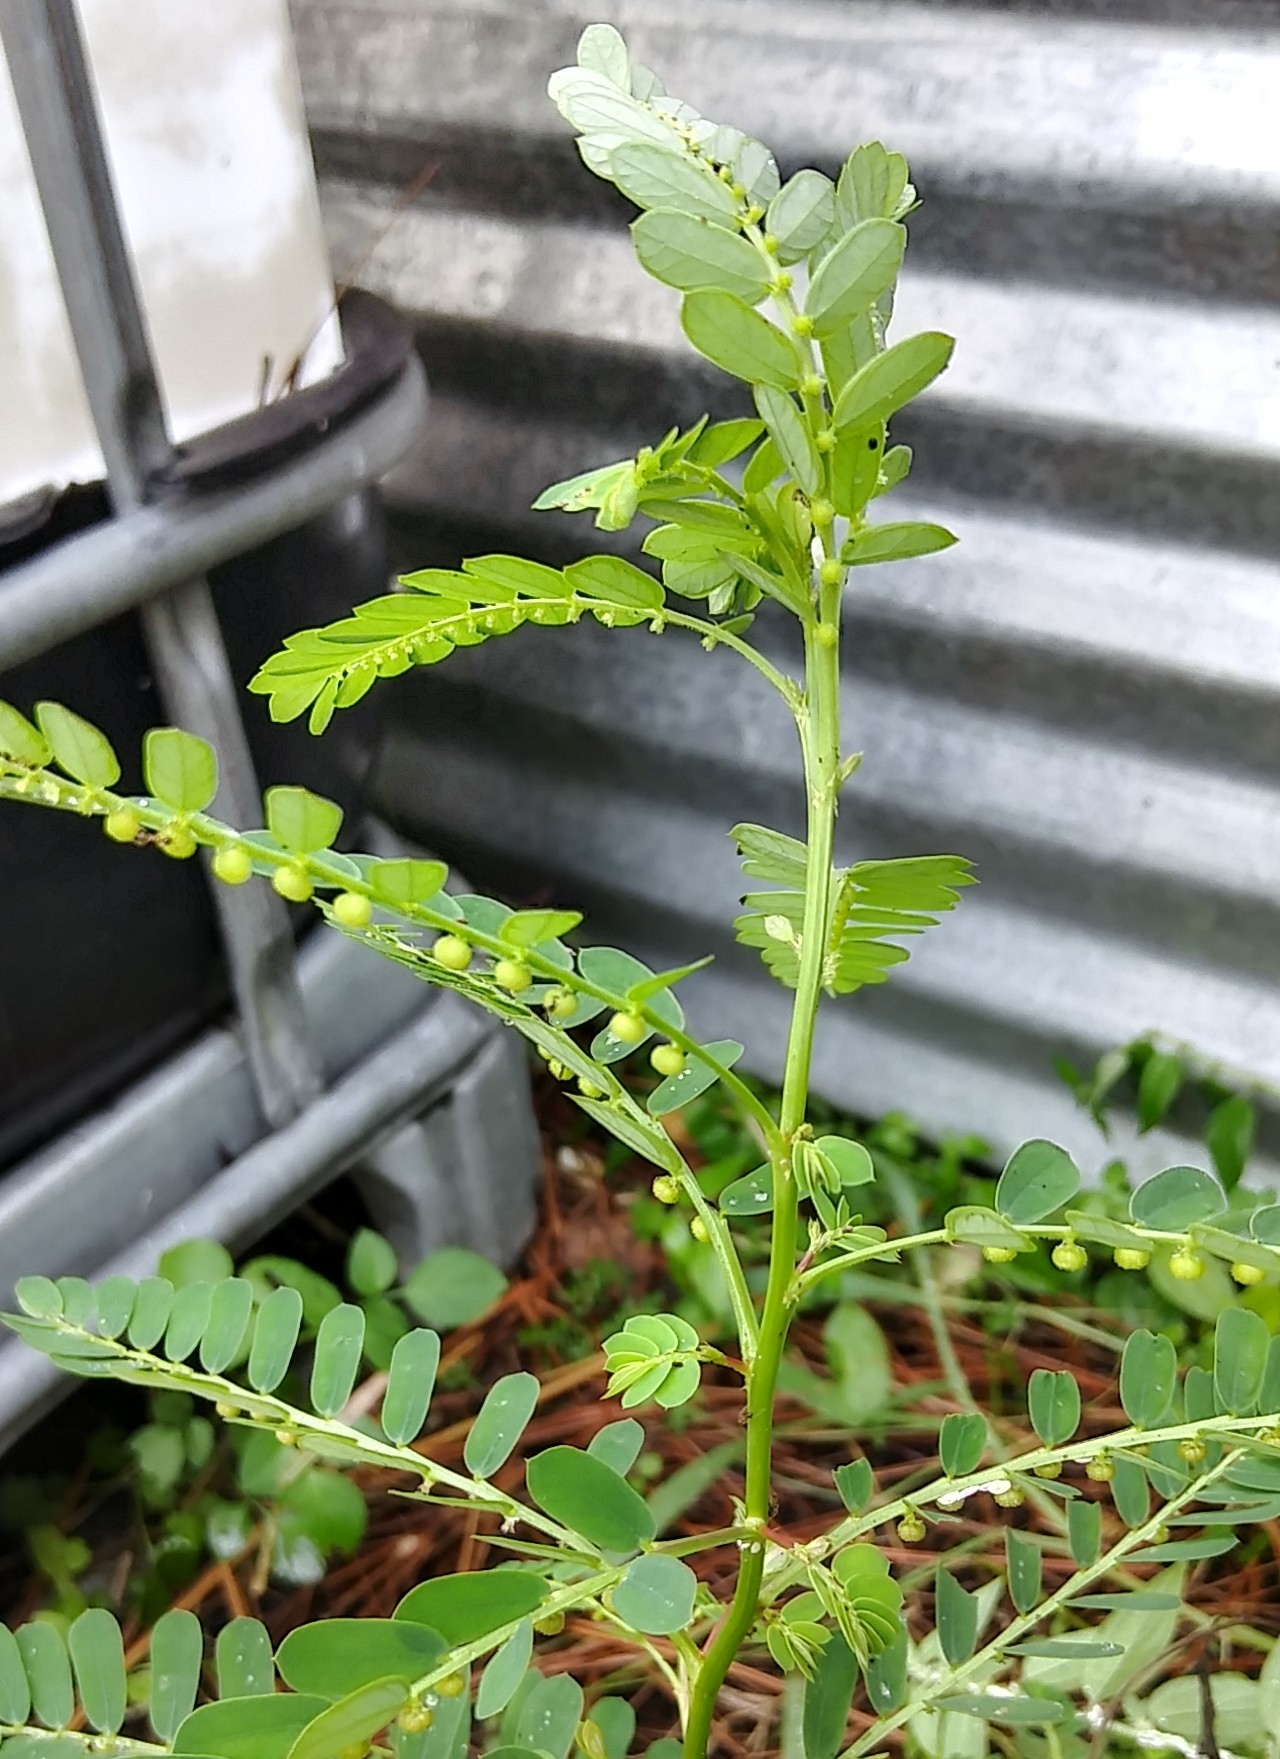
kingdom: Plantae
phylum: Tracheophyta
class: Magnoliopsida
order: Malpighiales
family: Phyllanthaceae
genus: Phyllanthus
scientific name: Phyllanthus urinaria
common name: Chamber bitter
